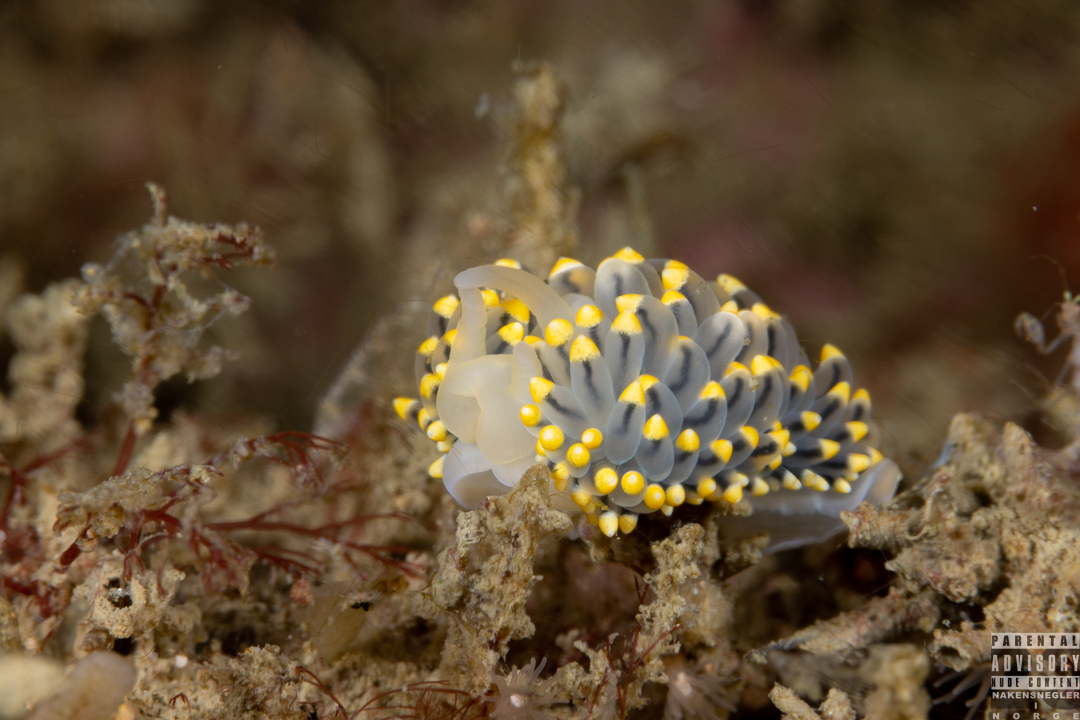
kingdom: Animalia
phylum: Mollusca
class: Gastropoda
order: Nudibranchia
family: Eubranchidae
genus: Eubranchus
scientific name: Eubranchus tricolor
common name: Painted balloon aeolis
